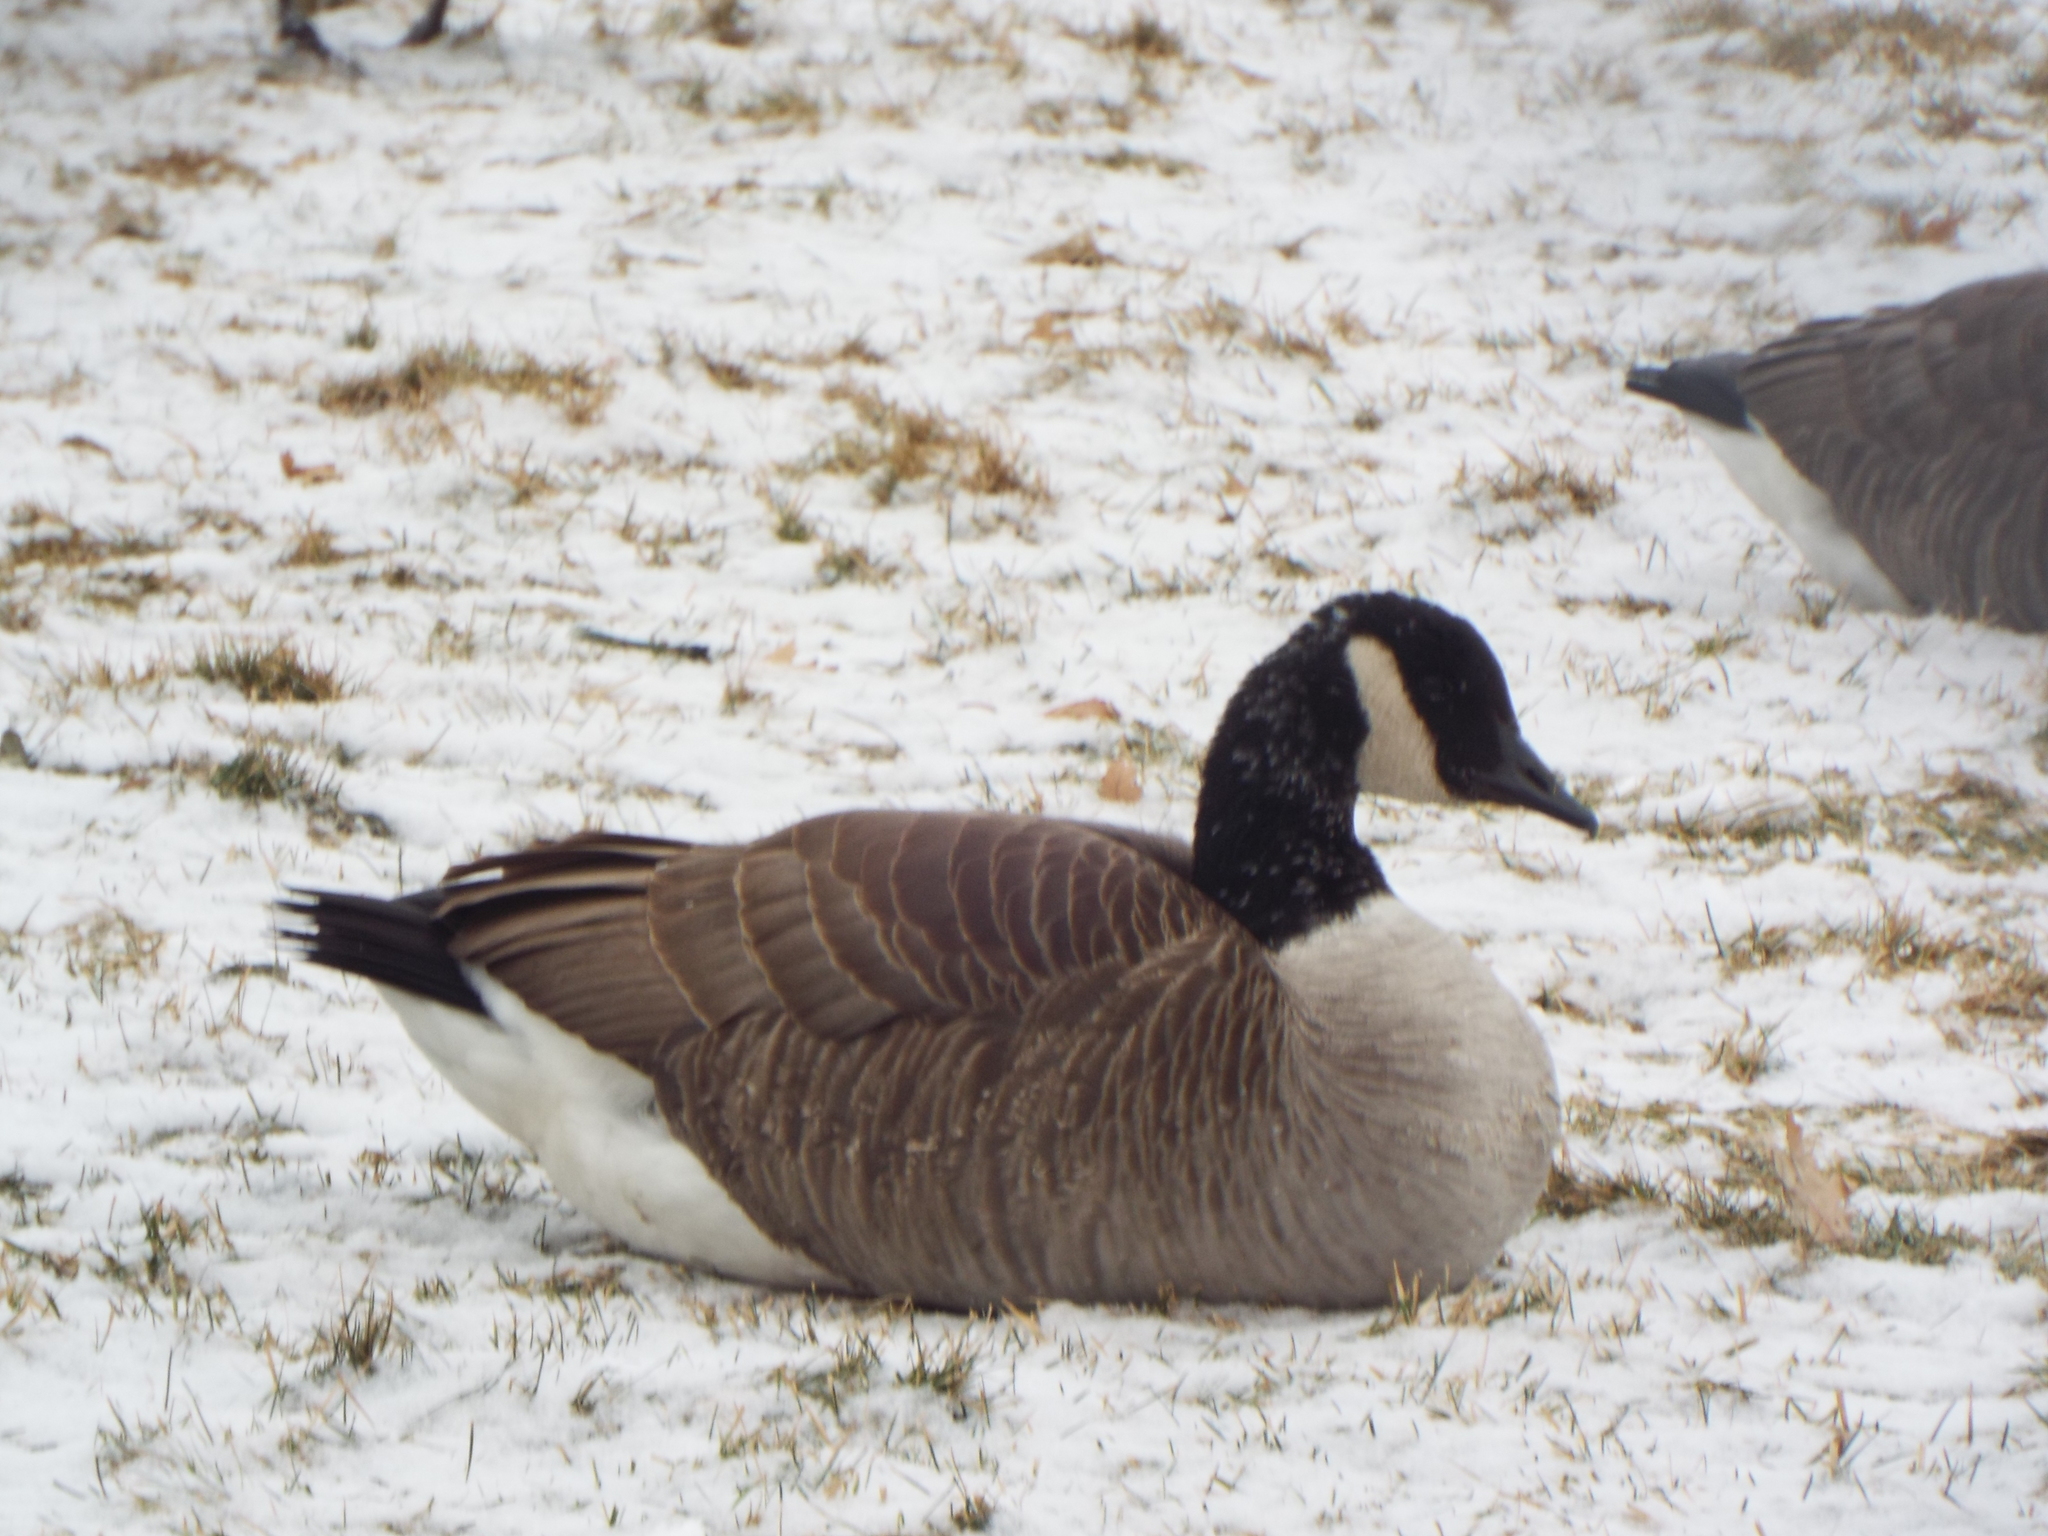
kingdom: Animalia
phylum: Chordata
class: Aves
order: Anseriformes
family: Anatidae
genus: Branta
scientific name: Branta canadensis
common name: Canada goose
